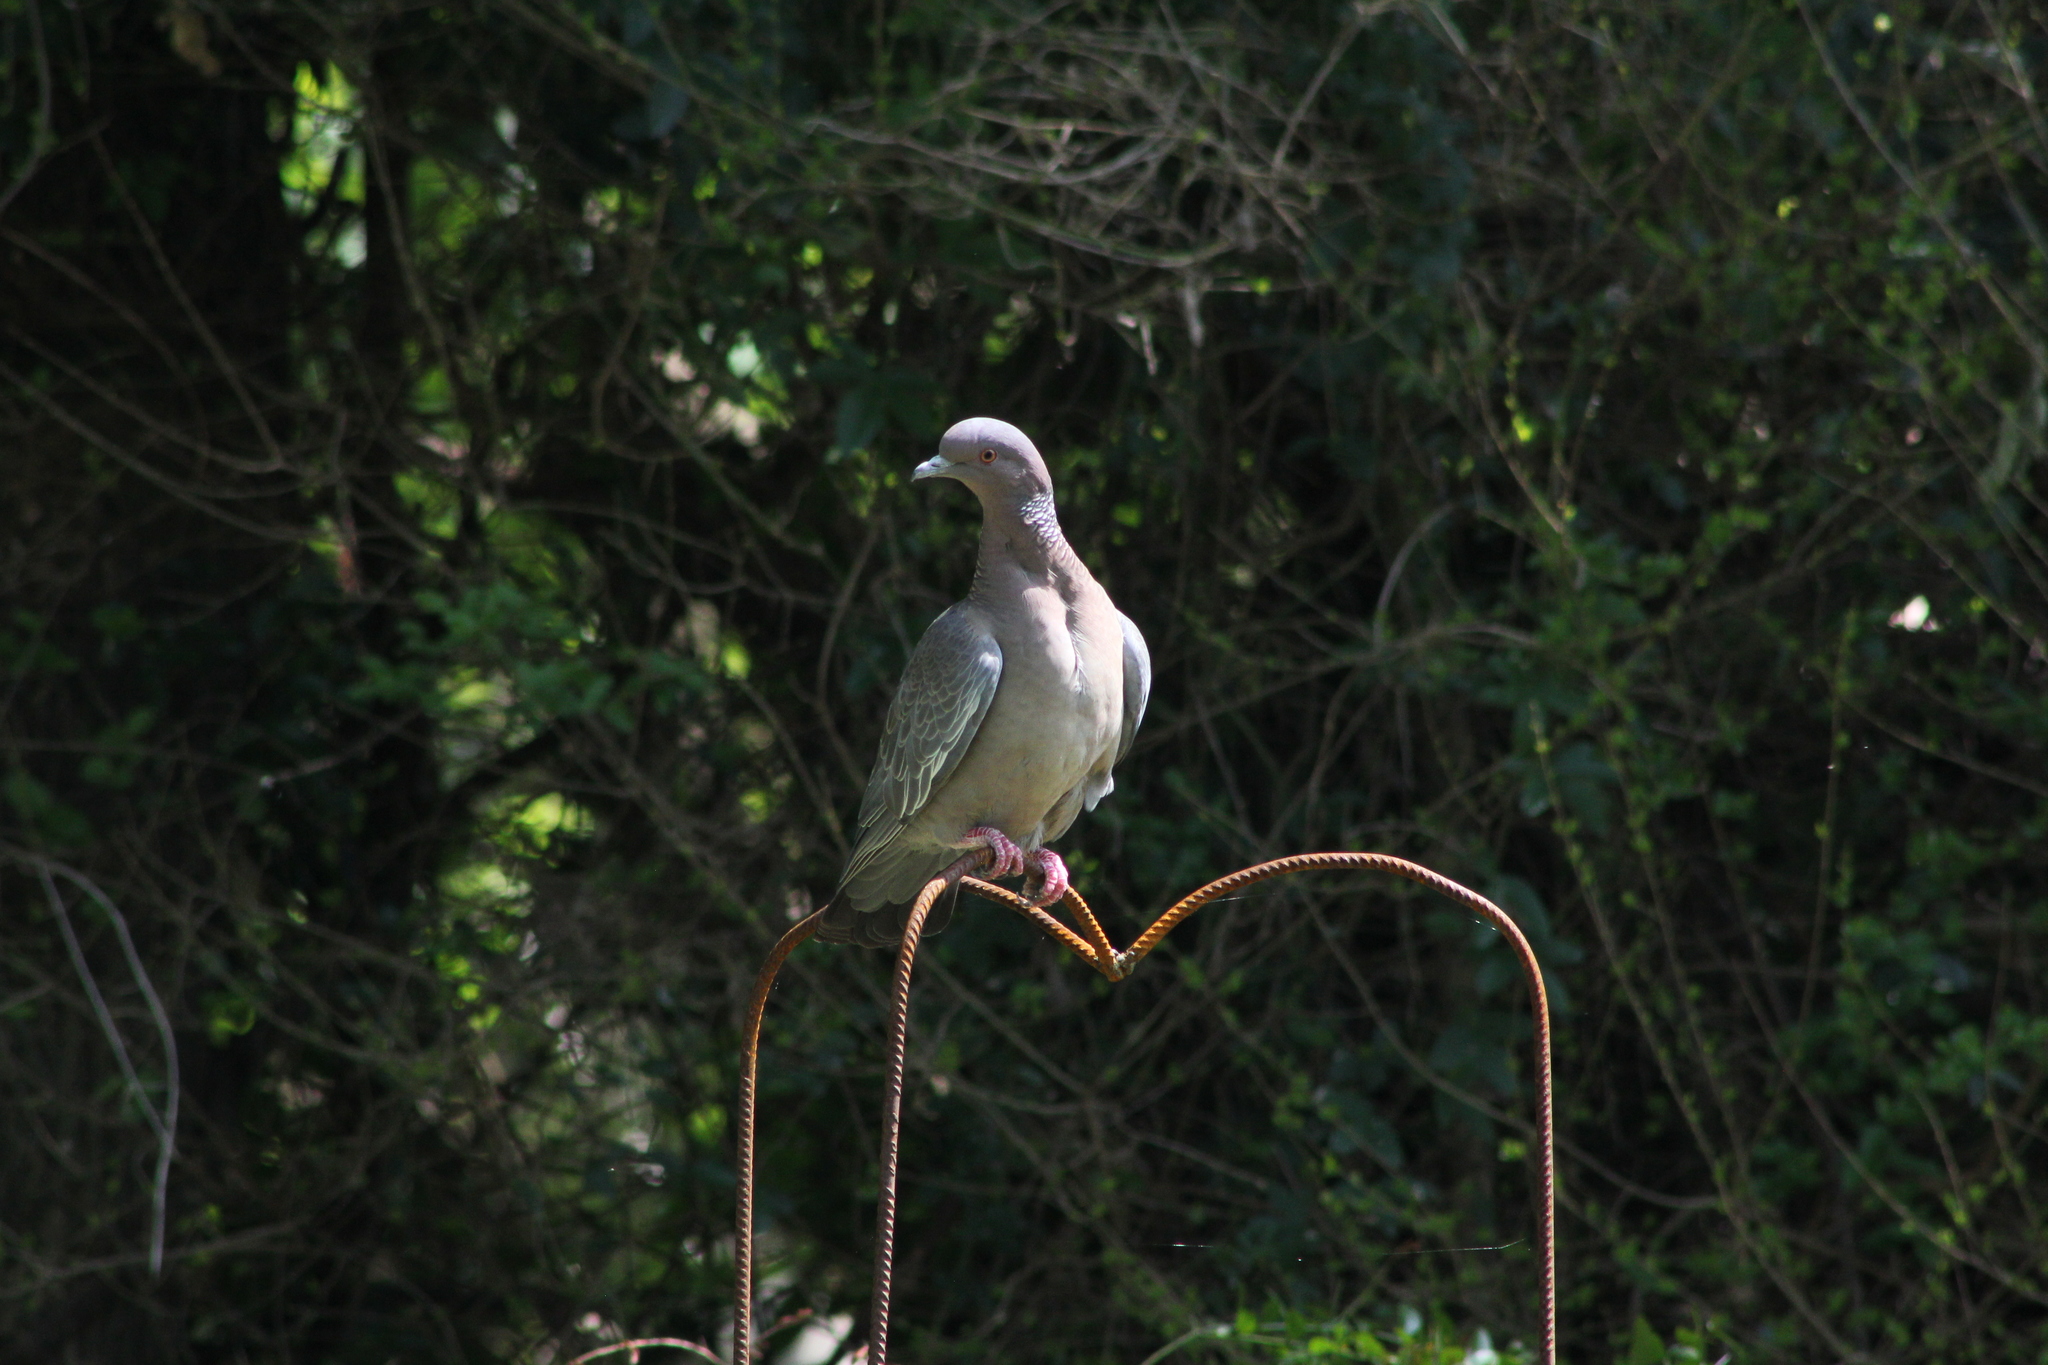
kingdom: Animalia
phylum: Chordata
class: Aves
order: Columbiformes
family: Columbidae
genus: Patagioenas
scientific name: Patagioenas picazuro
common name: Picazuro pigeon
